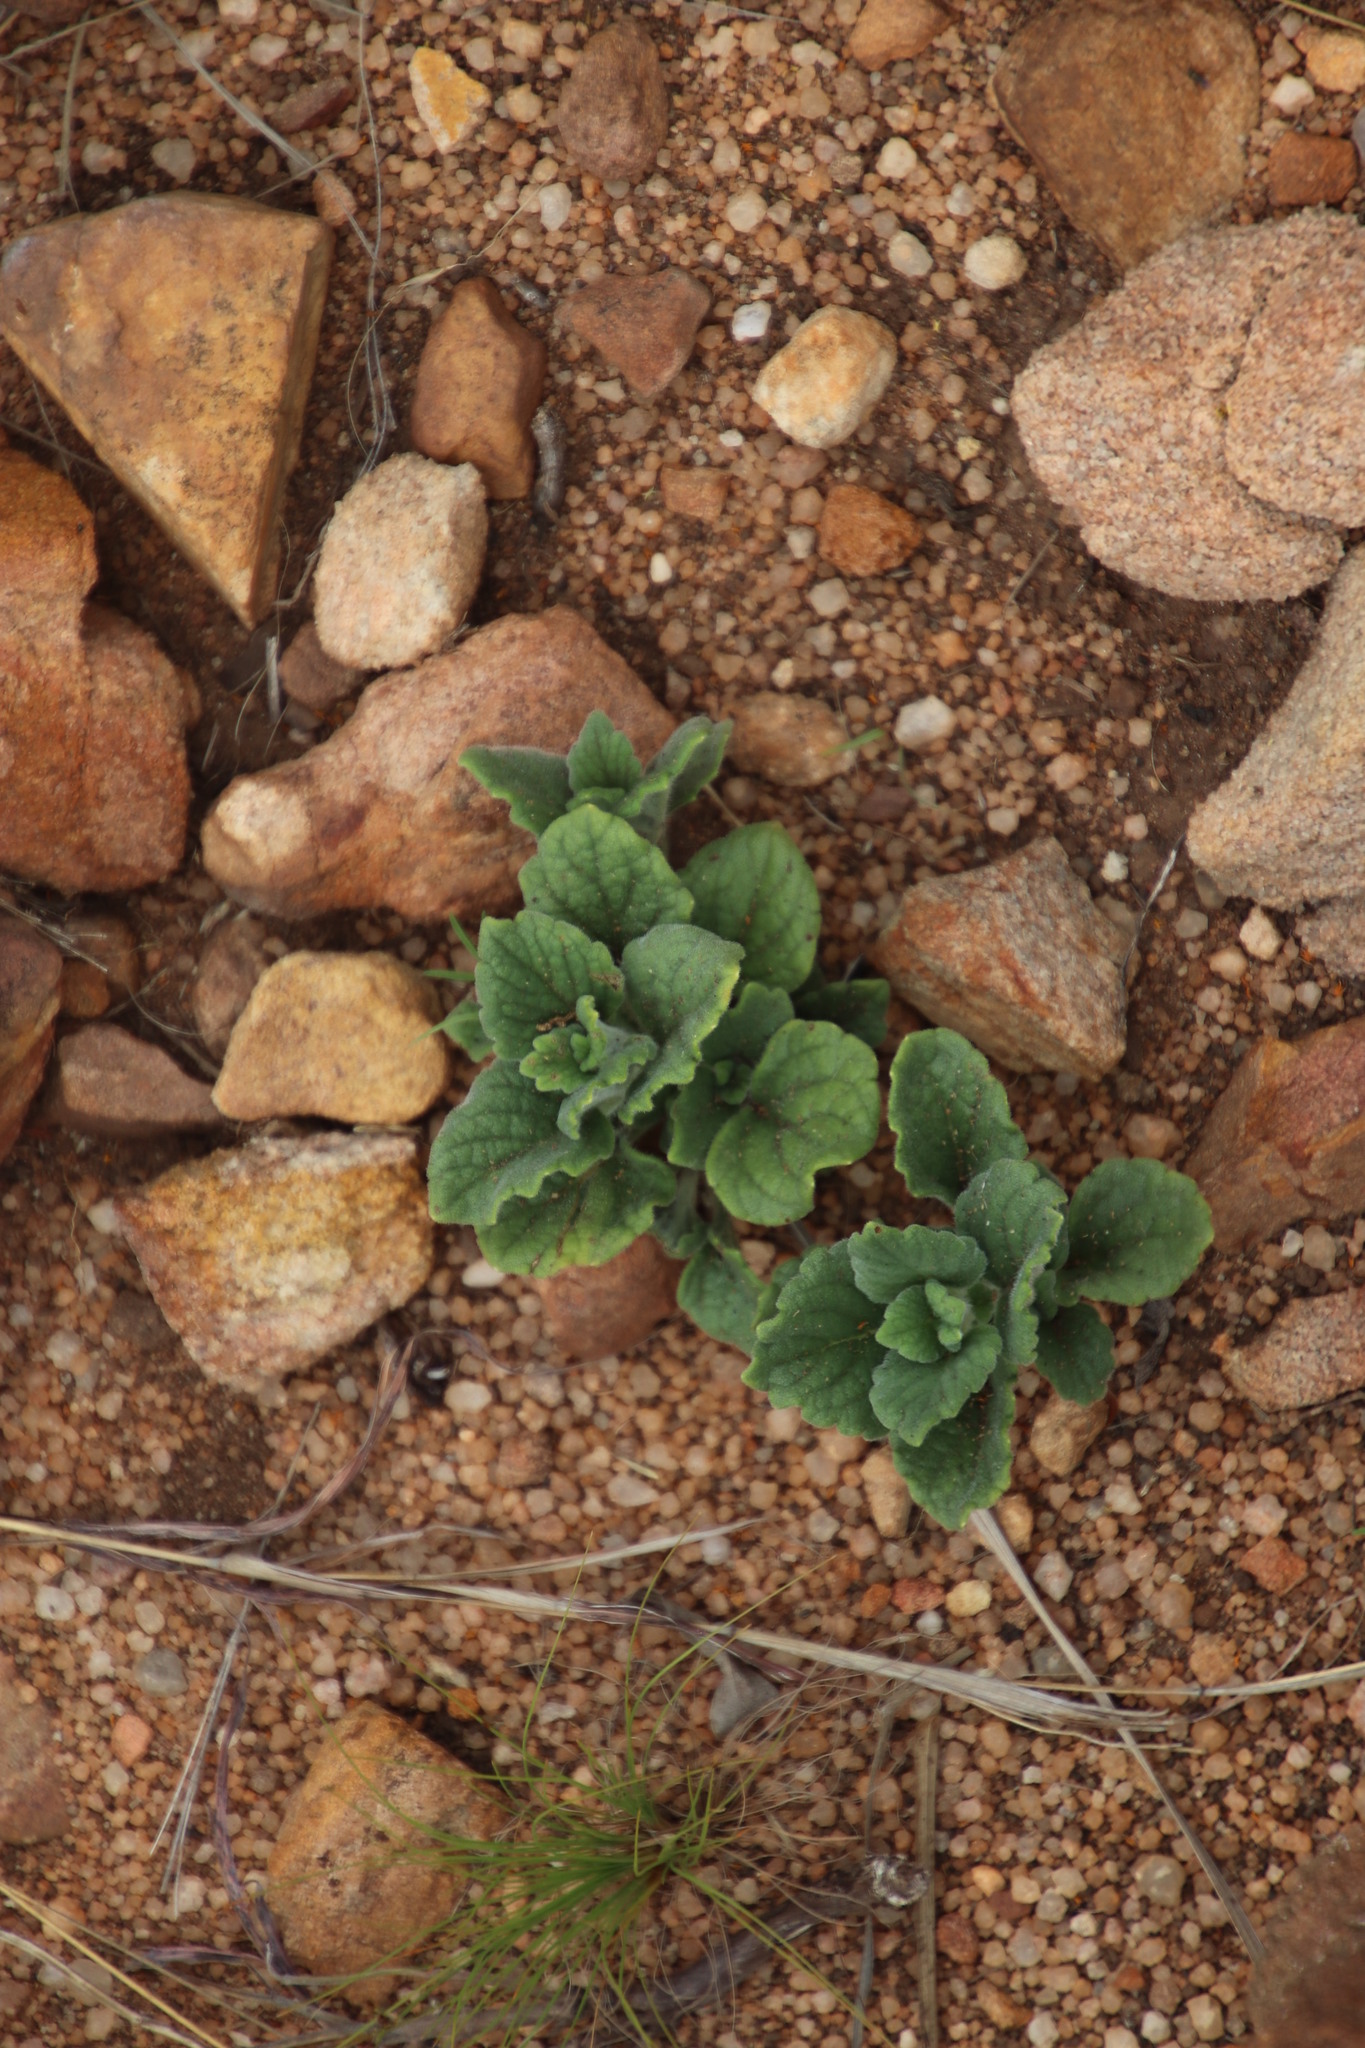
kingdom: Plantae
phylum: Tracheophyta
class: Magnoliopsida
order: Lamiales
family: Lamiaceae
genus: Coleus
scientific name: Coleus hadiensis
